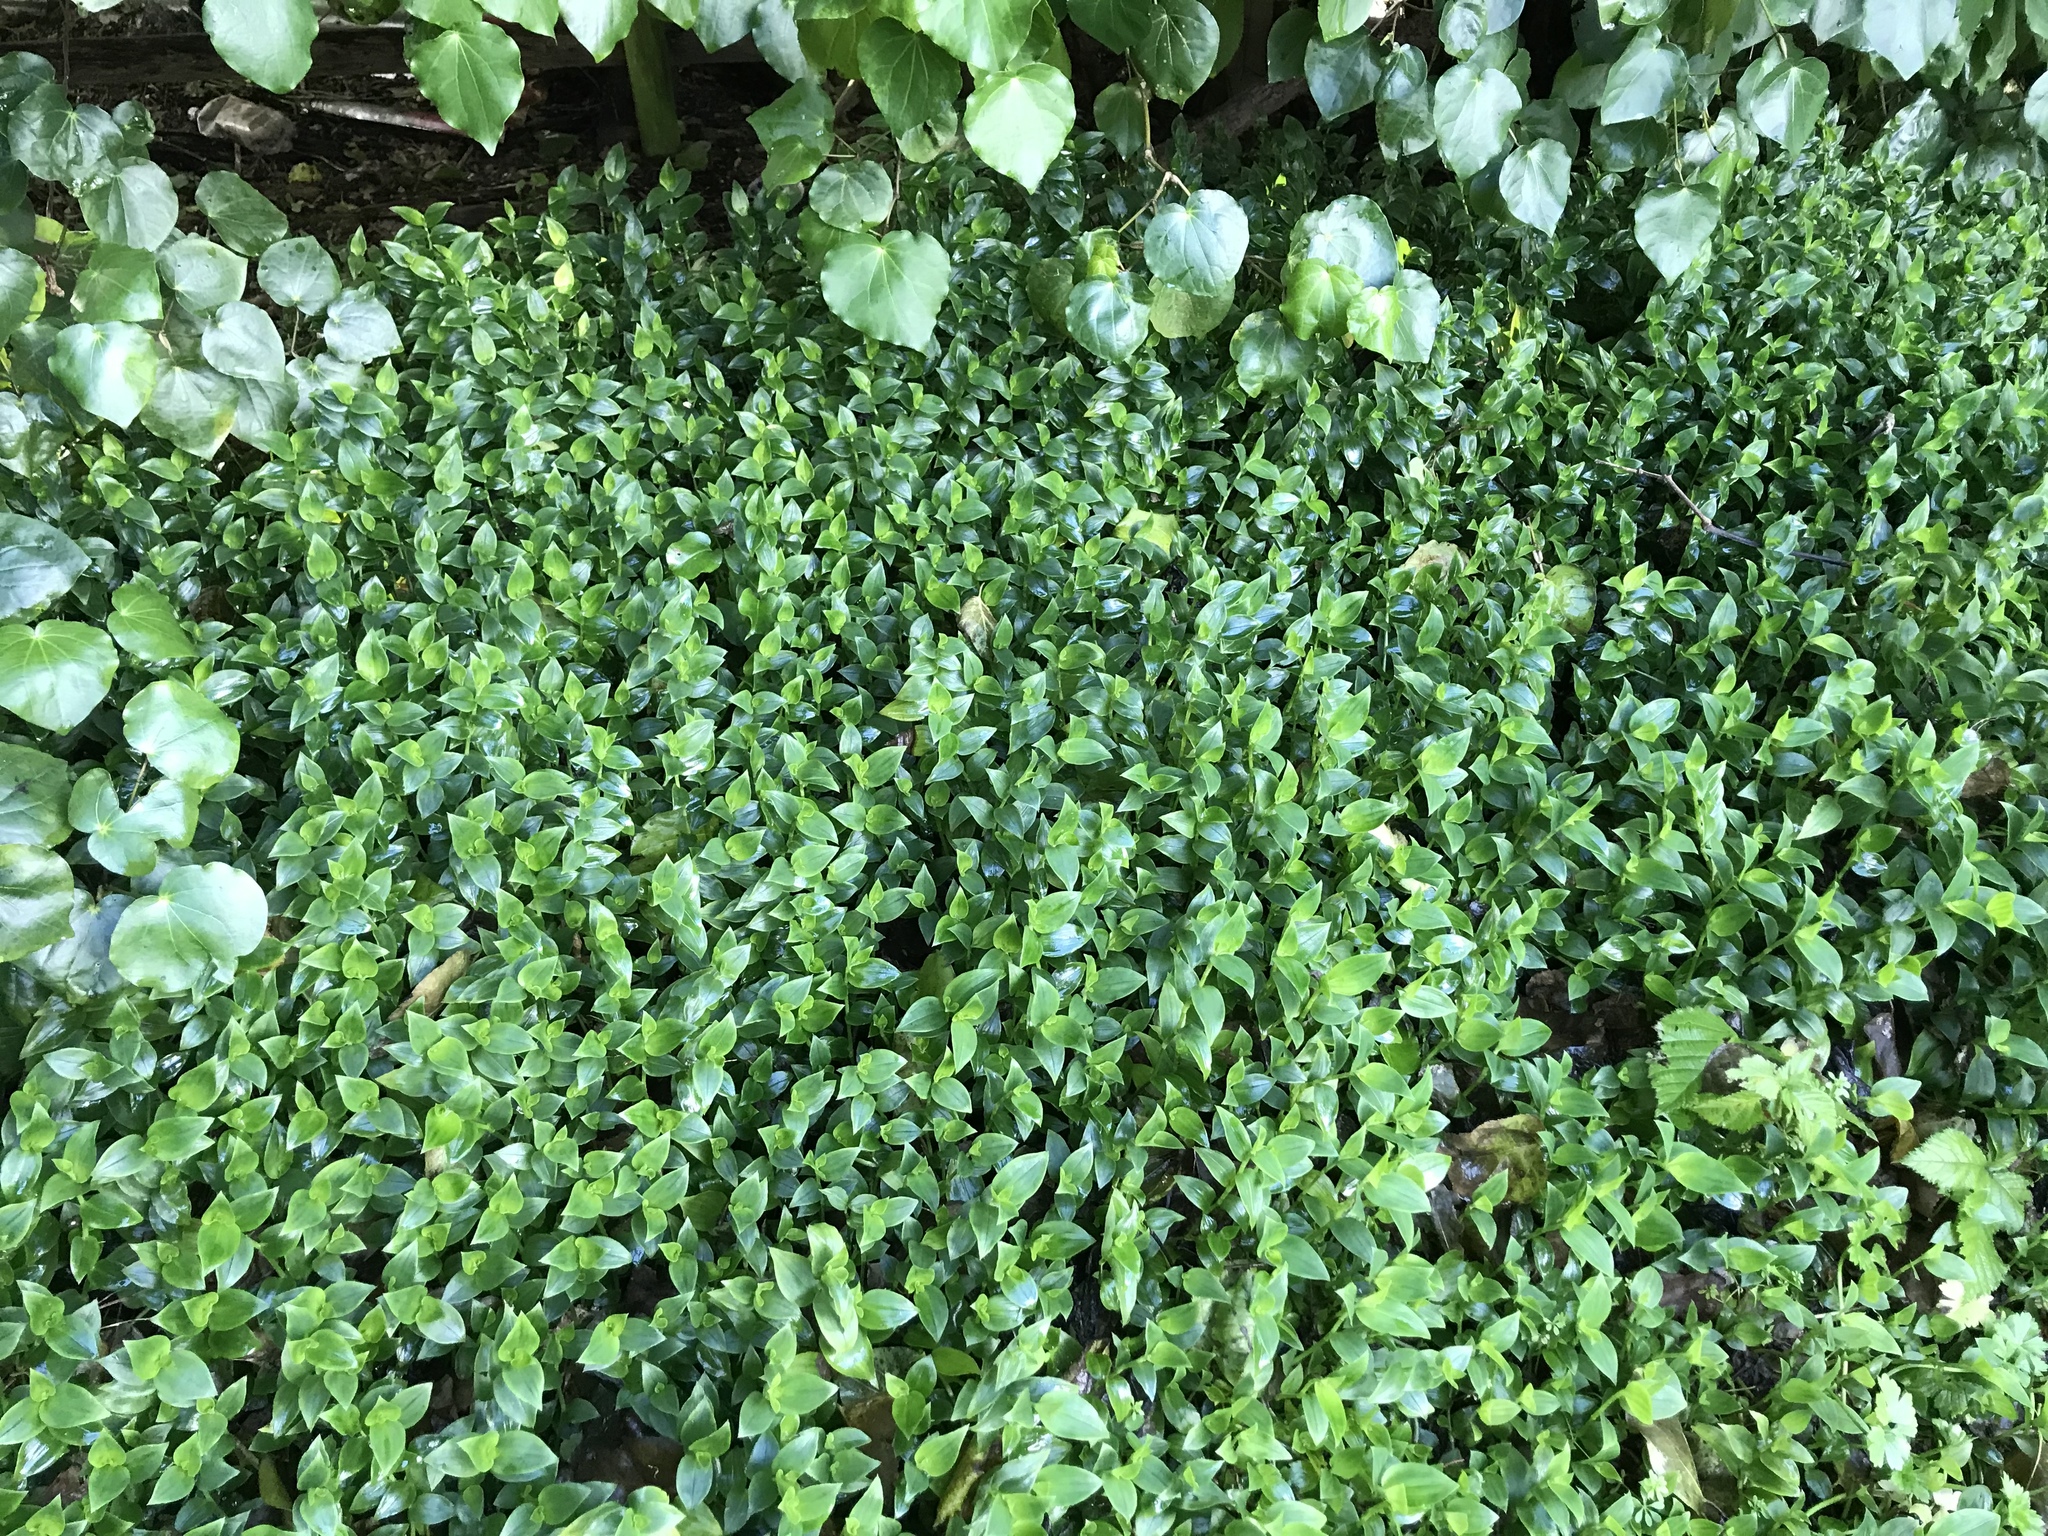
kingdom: Plantae
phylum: Tracheophyta
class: Liliopsida
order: Commelinales
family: Commelinaceae
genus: Tradescantia
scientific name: Tradescantia fluminensis
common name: Wandering-jew
